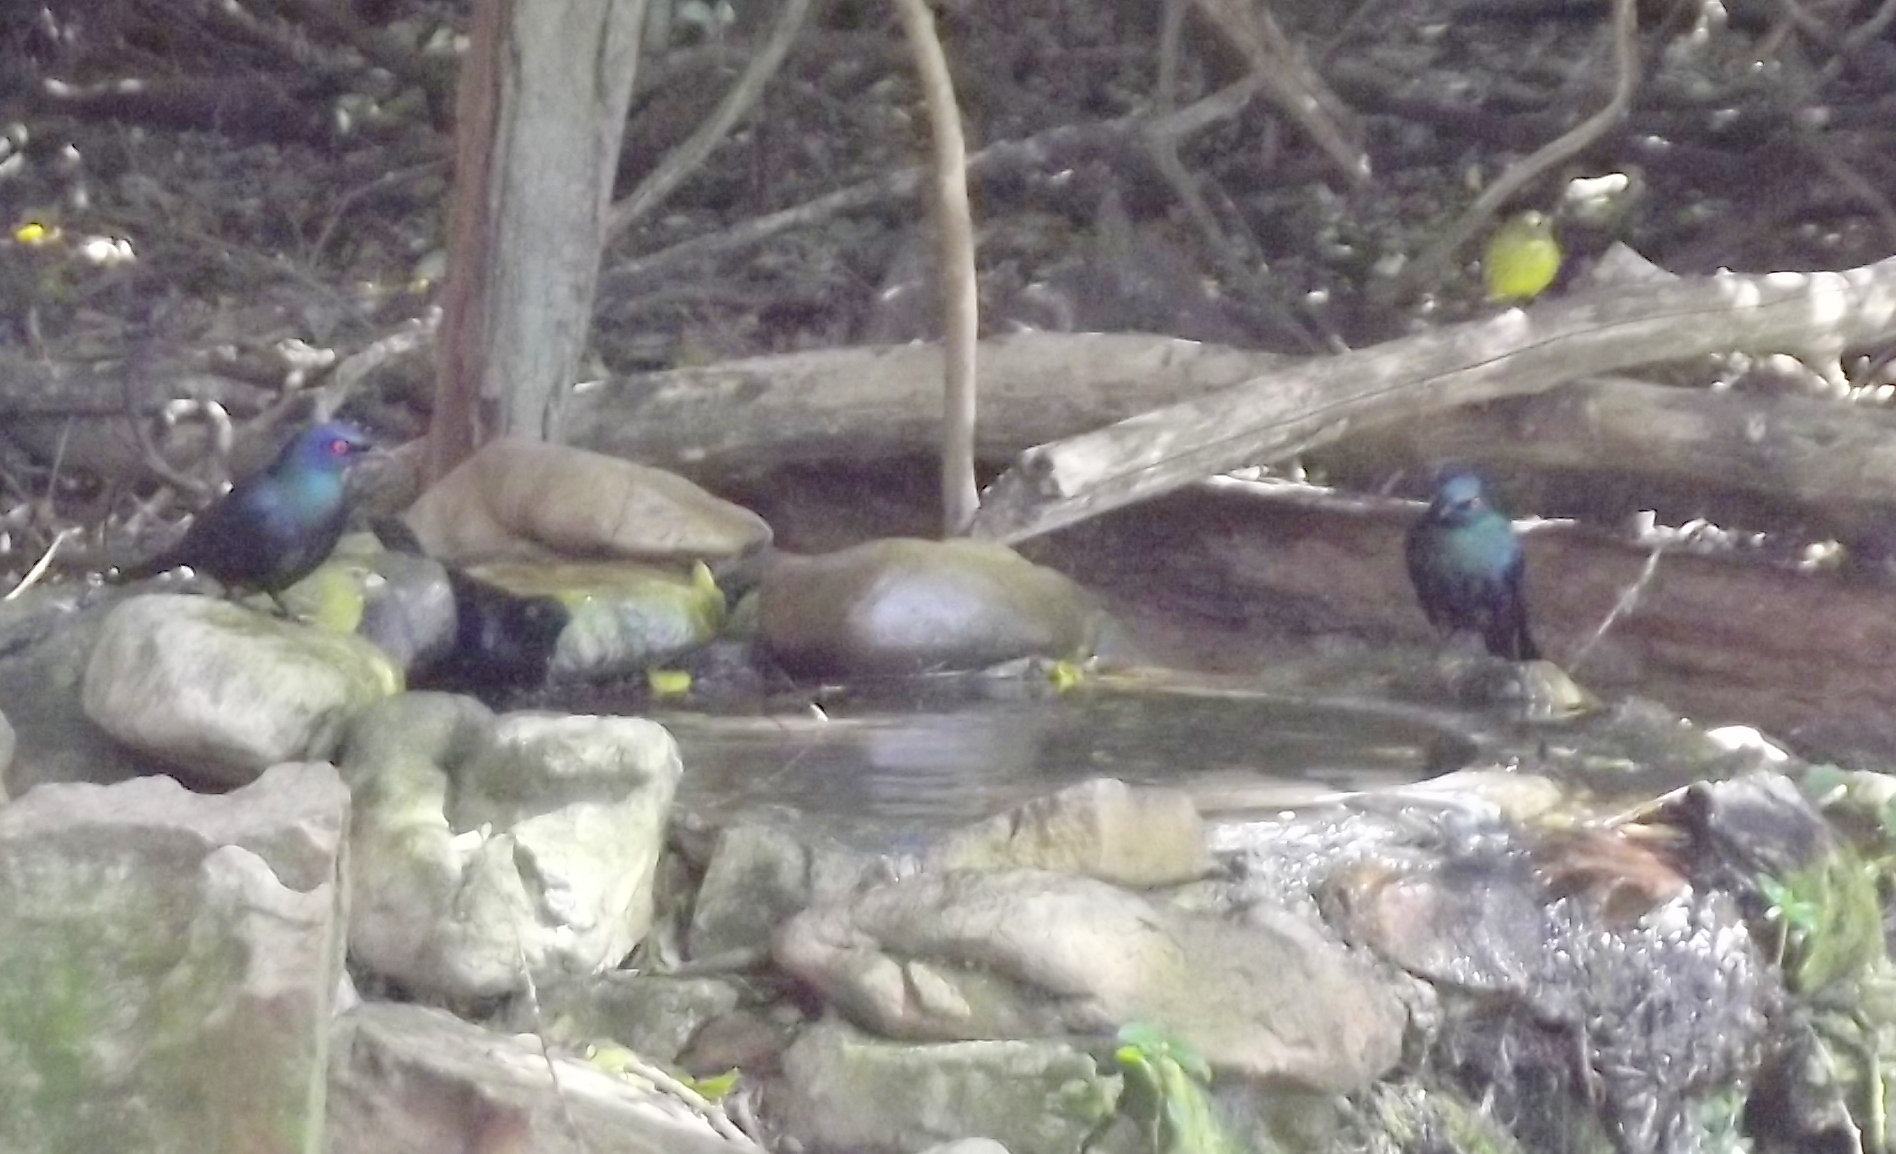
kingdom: Animalia
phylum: Chordata
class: Aves
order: Passeriformes
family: Sturnidae
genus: Notopholia
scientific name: Notopholia corrusca
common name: Black-bellied starling
